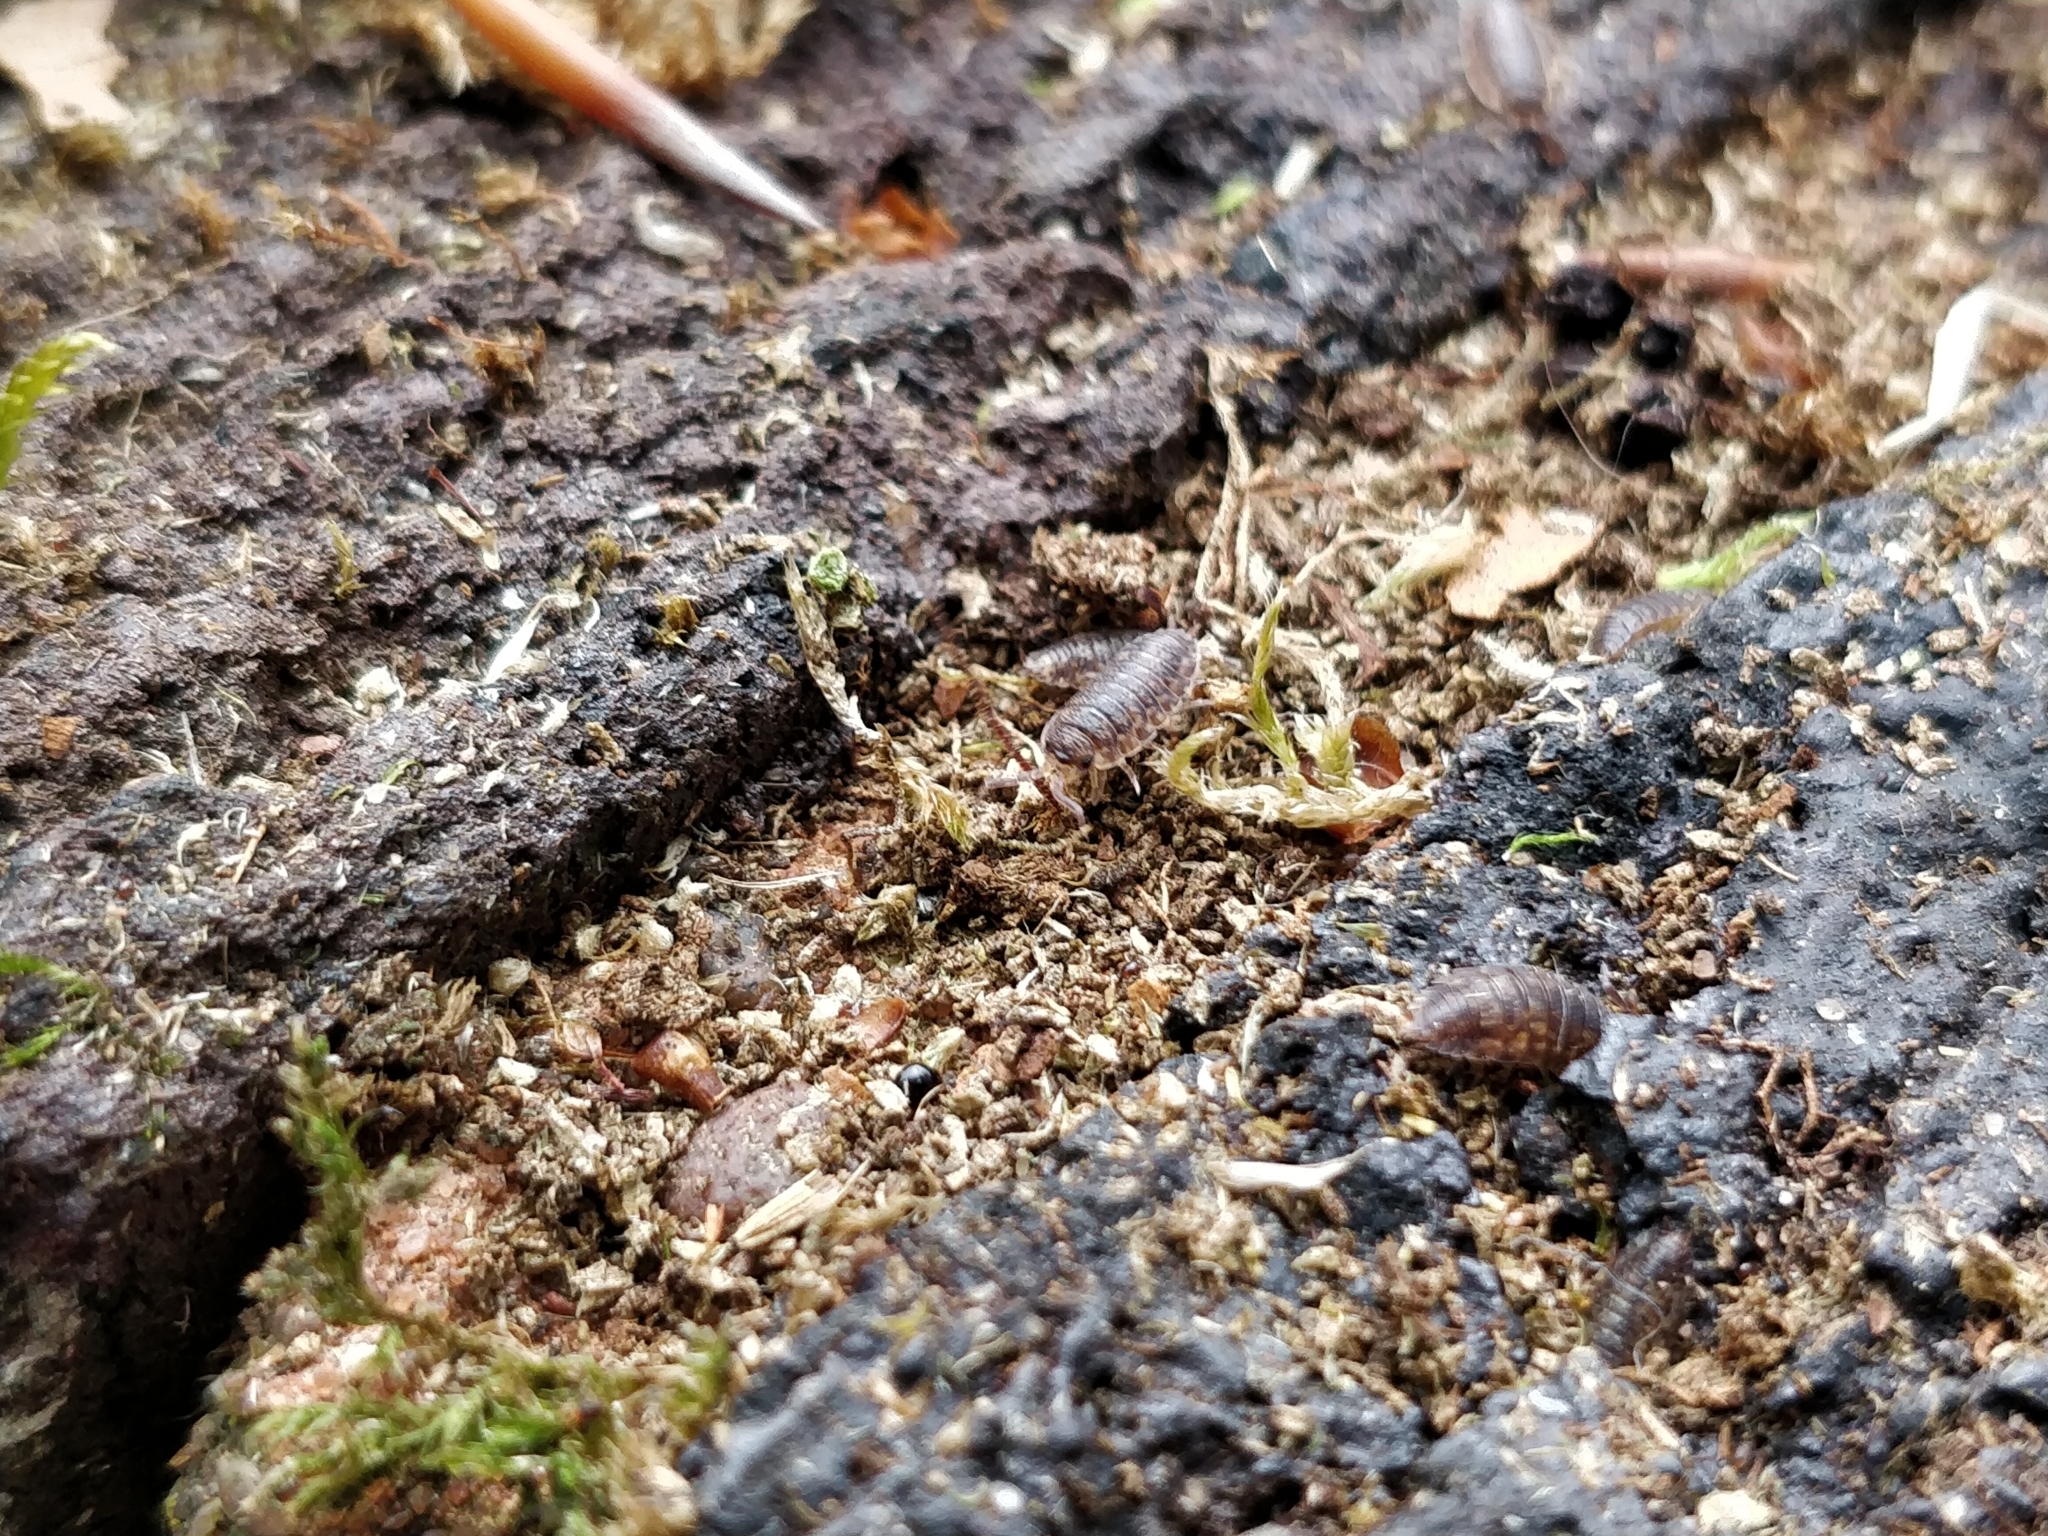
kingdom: Animalia
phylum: Arthropoda
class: Malacostraca
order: Isopoda
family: Oniscidae
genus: Oniscus
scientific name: Oniscus asellus
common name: Common shiny woodlouse
